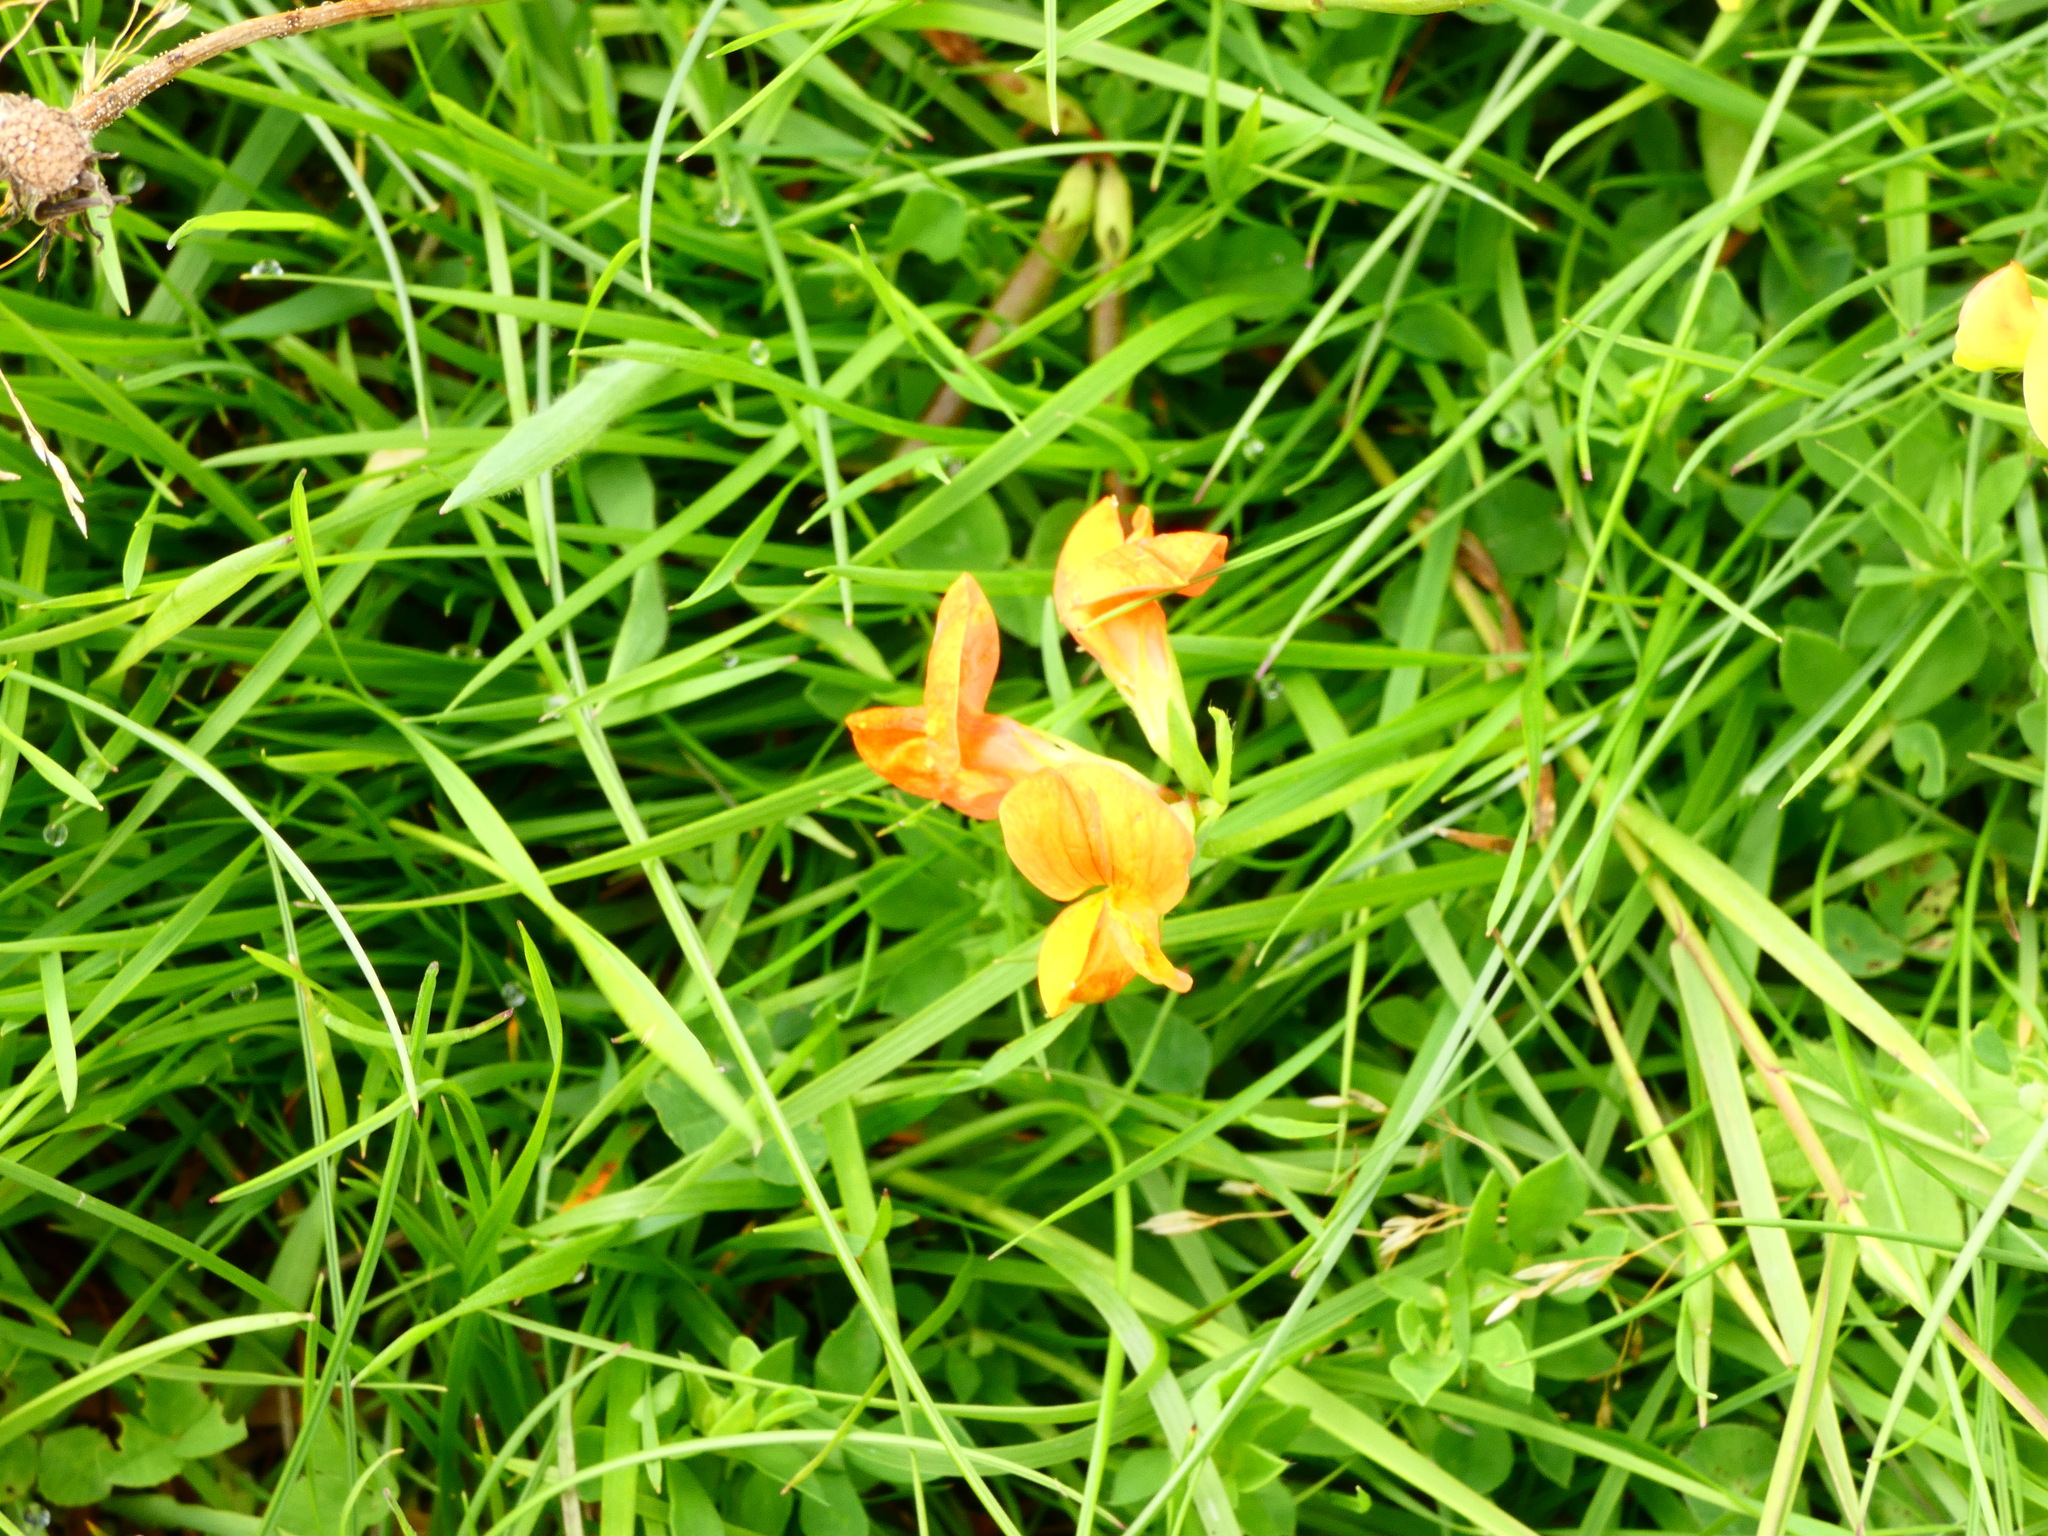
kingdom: Plantae
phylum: Tracheophyta
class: Magnoliopsida
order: Fabales
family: Fabaceae
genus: Lotus
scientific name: Lotus corniculatus
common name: Common bird's-foot-trefoil
